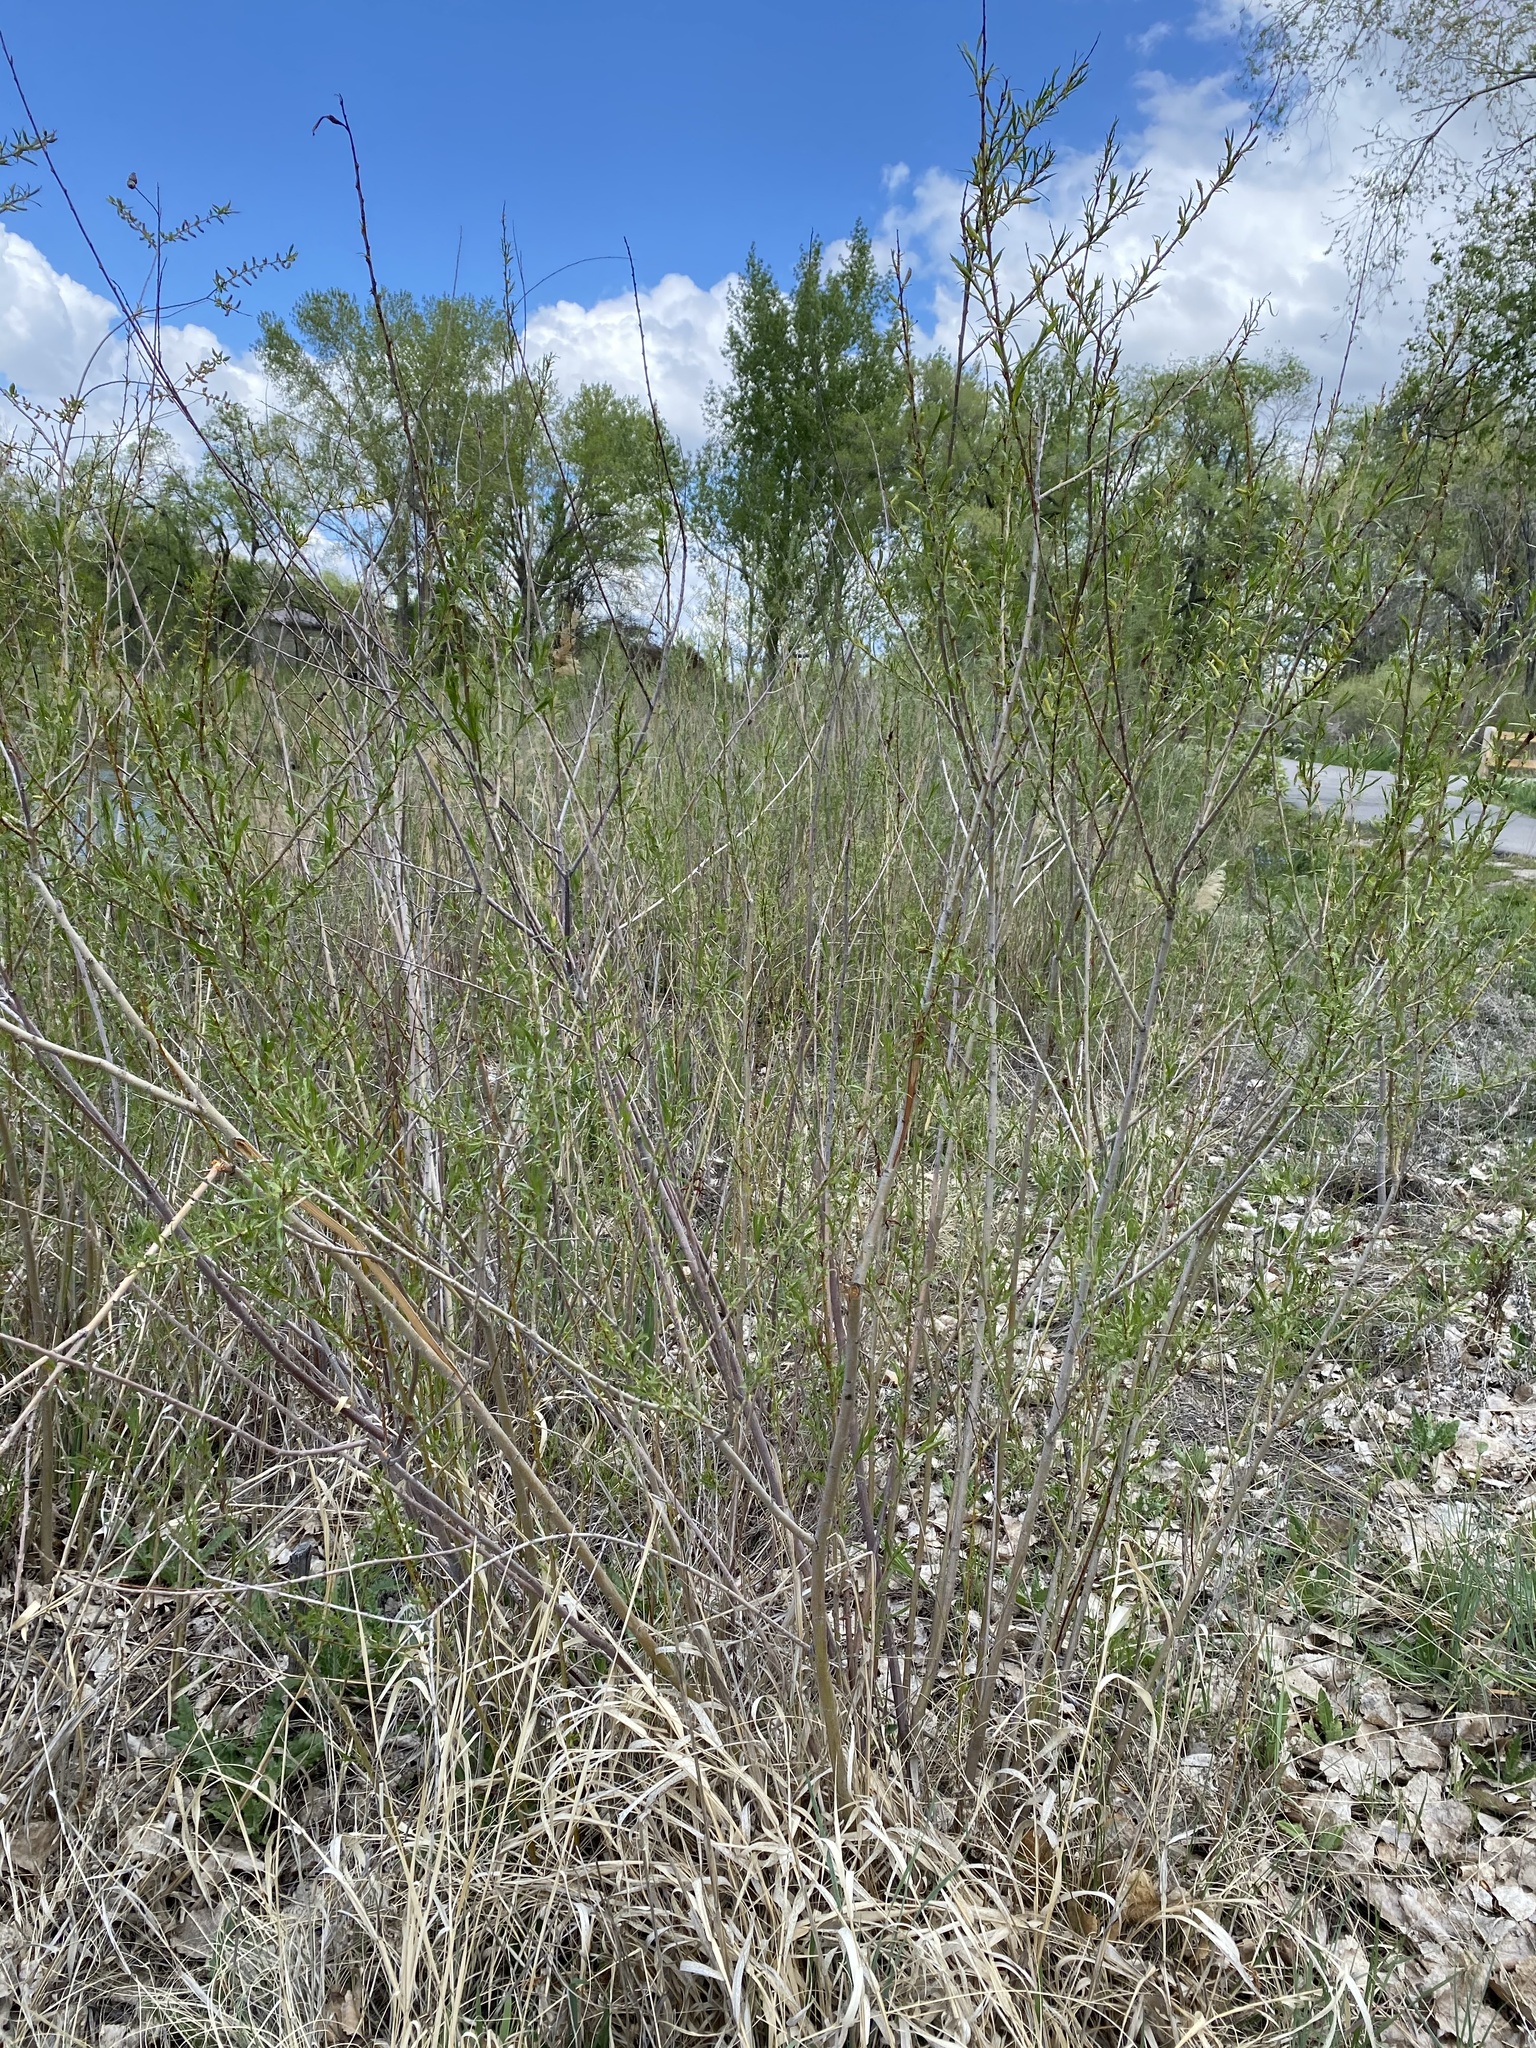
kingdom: Plantae
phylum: Tracheophyta
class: Magnoliopsida
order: Malpighiales
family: Salicaceae
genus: Salix
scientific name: Salix exigua
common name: Coyote willow
